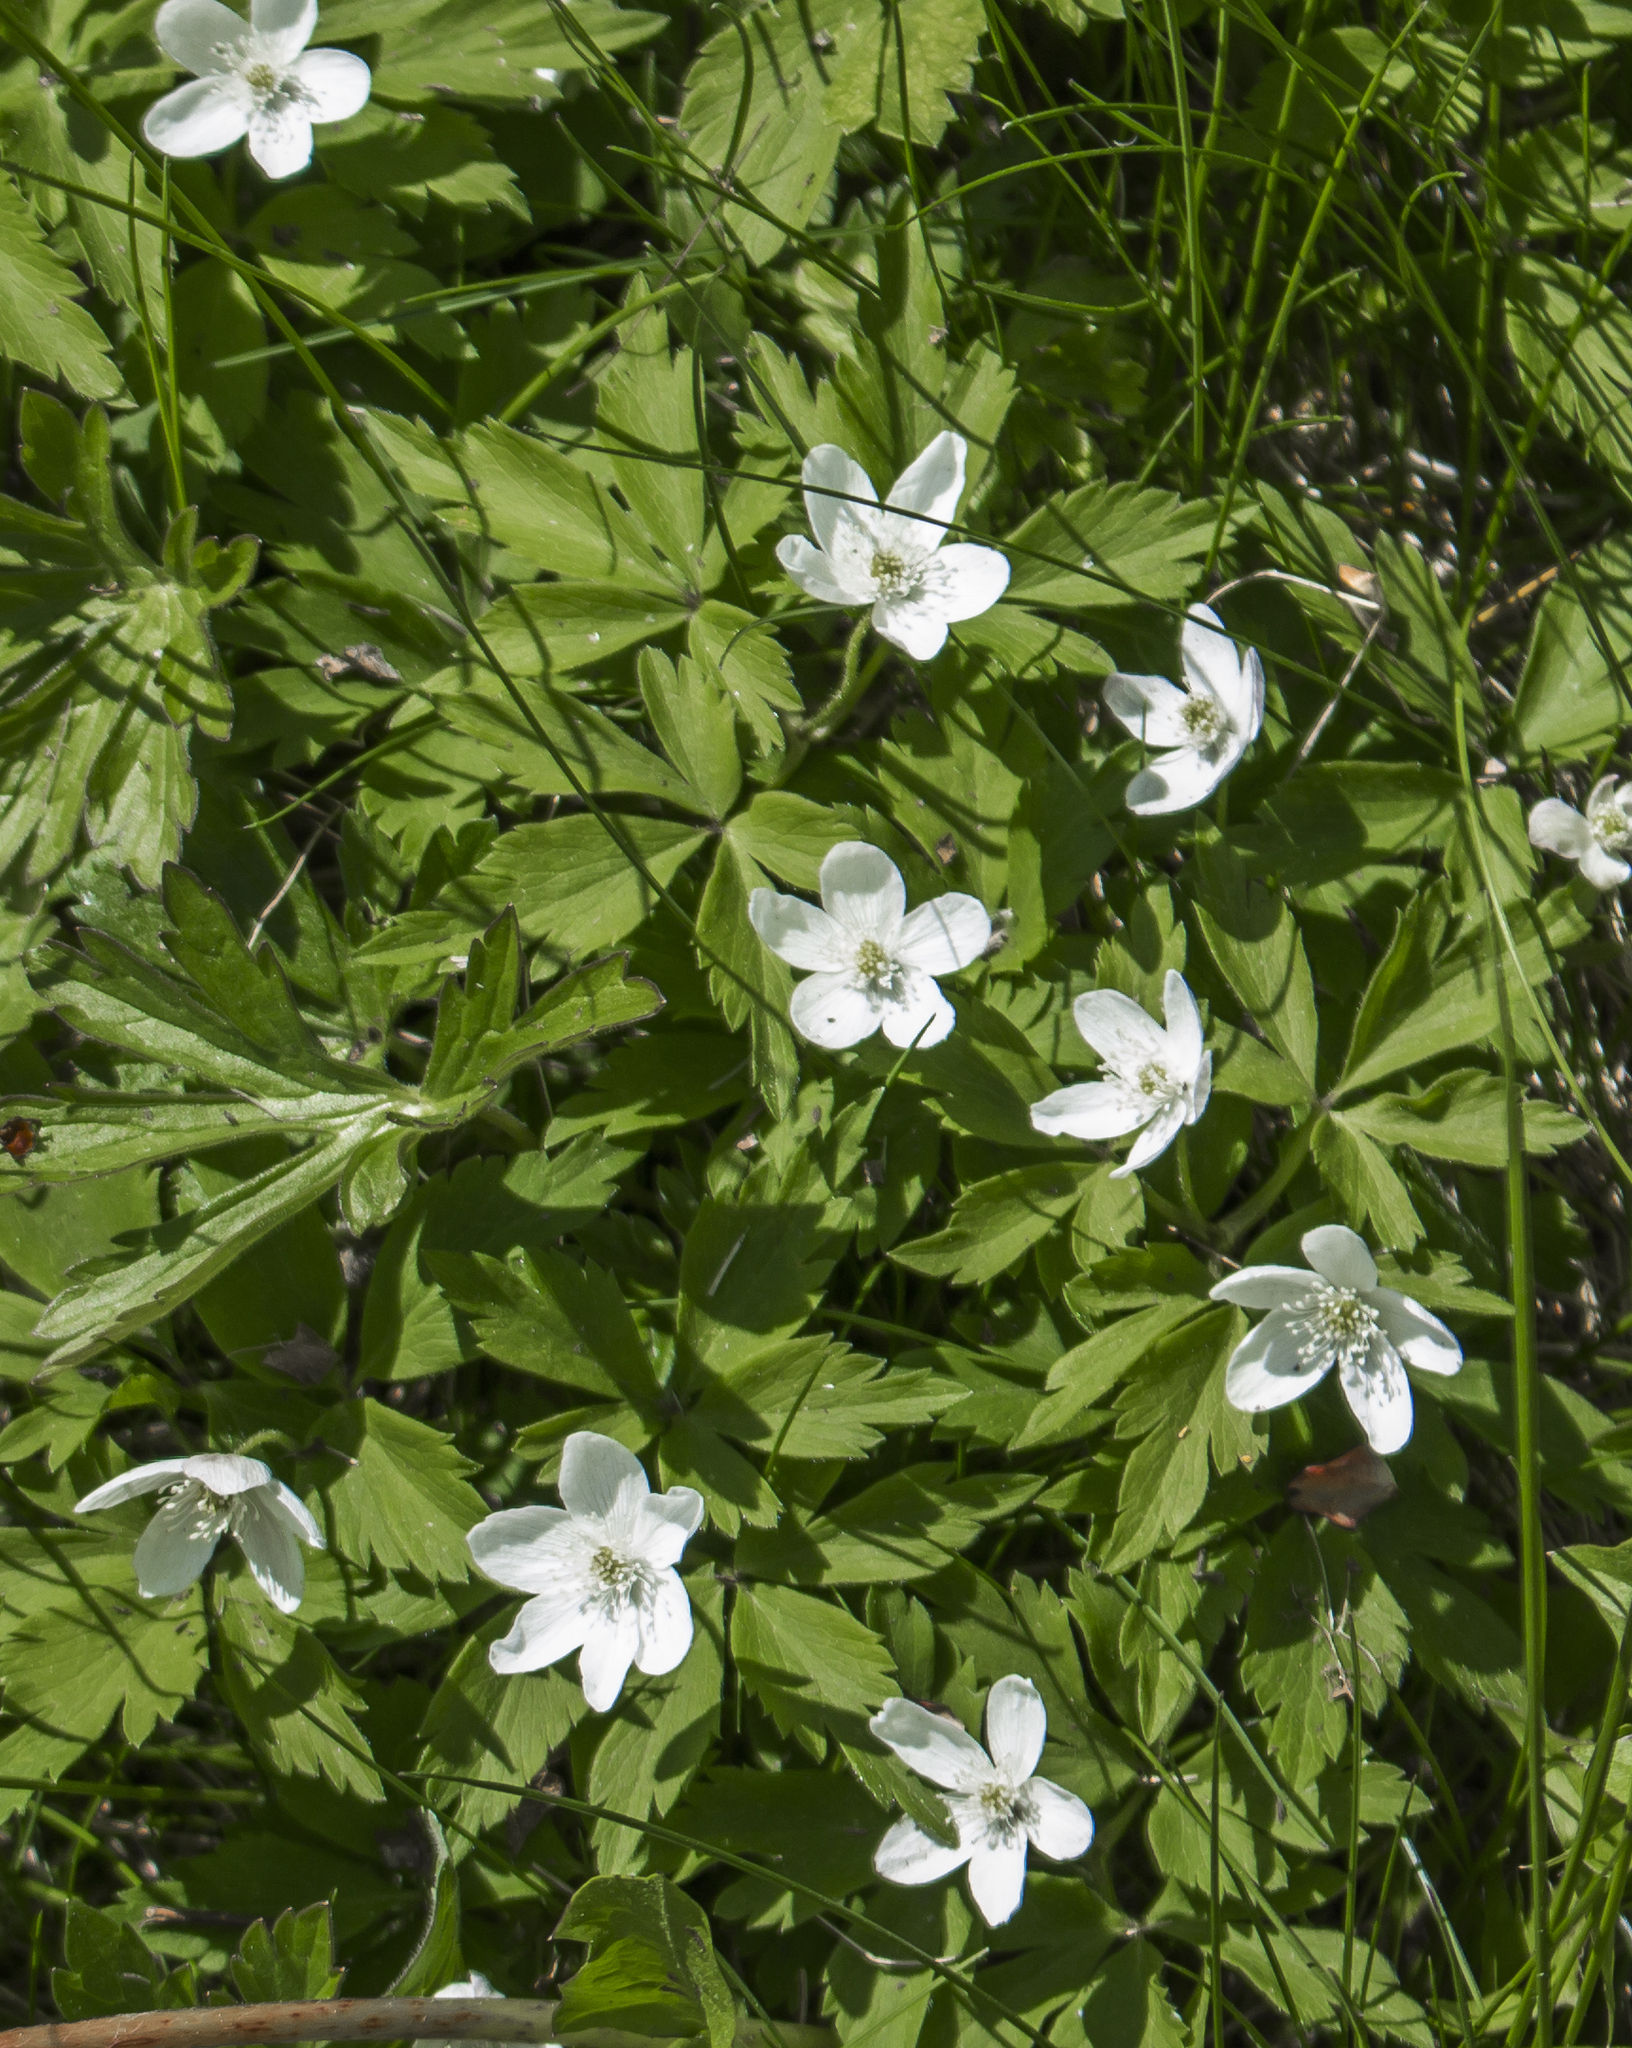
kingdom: Plantae
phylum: Tracheophyta
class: Magnoliopsida
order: Ranunculales
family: Ranunculaceae
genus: Anemone
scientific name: Anemone quinquefolia
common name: Wood anemone
